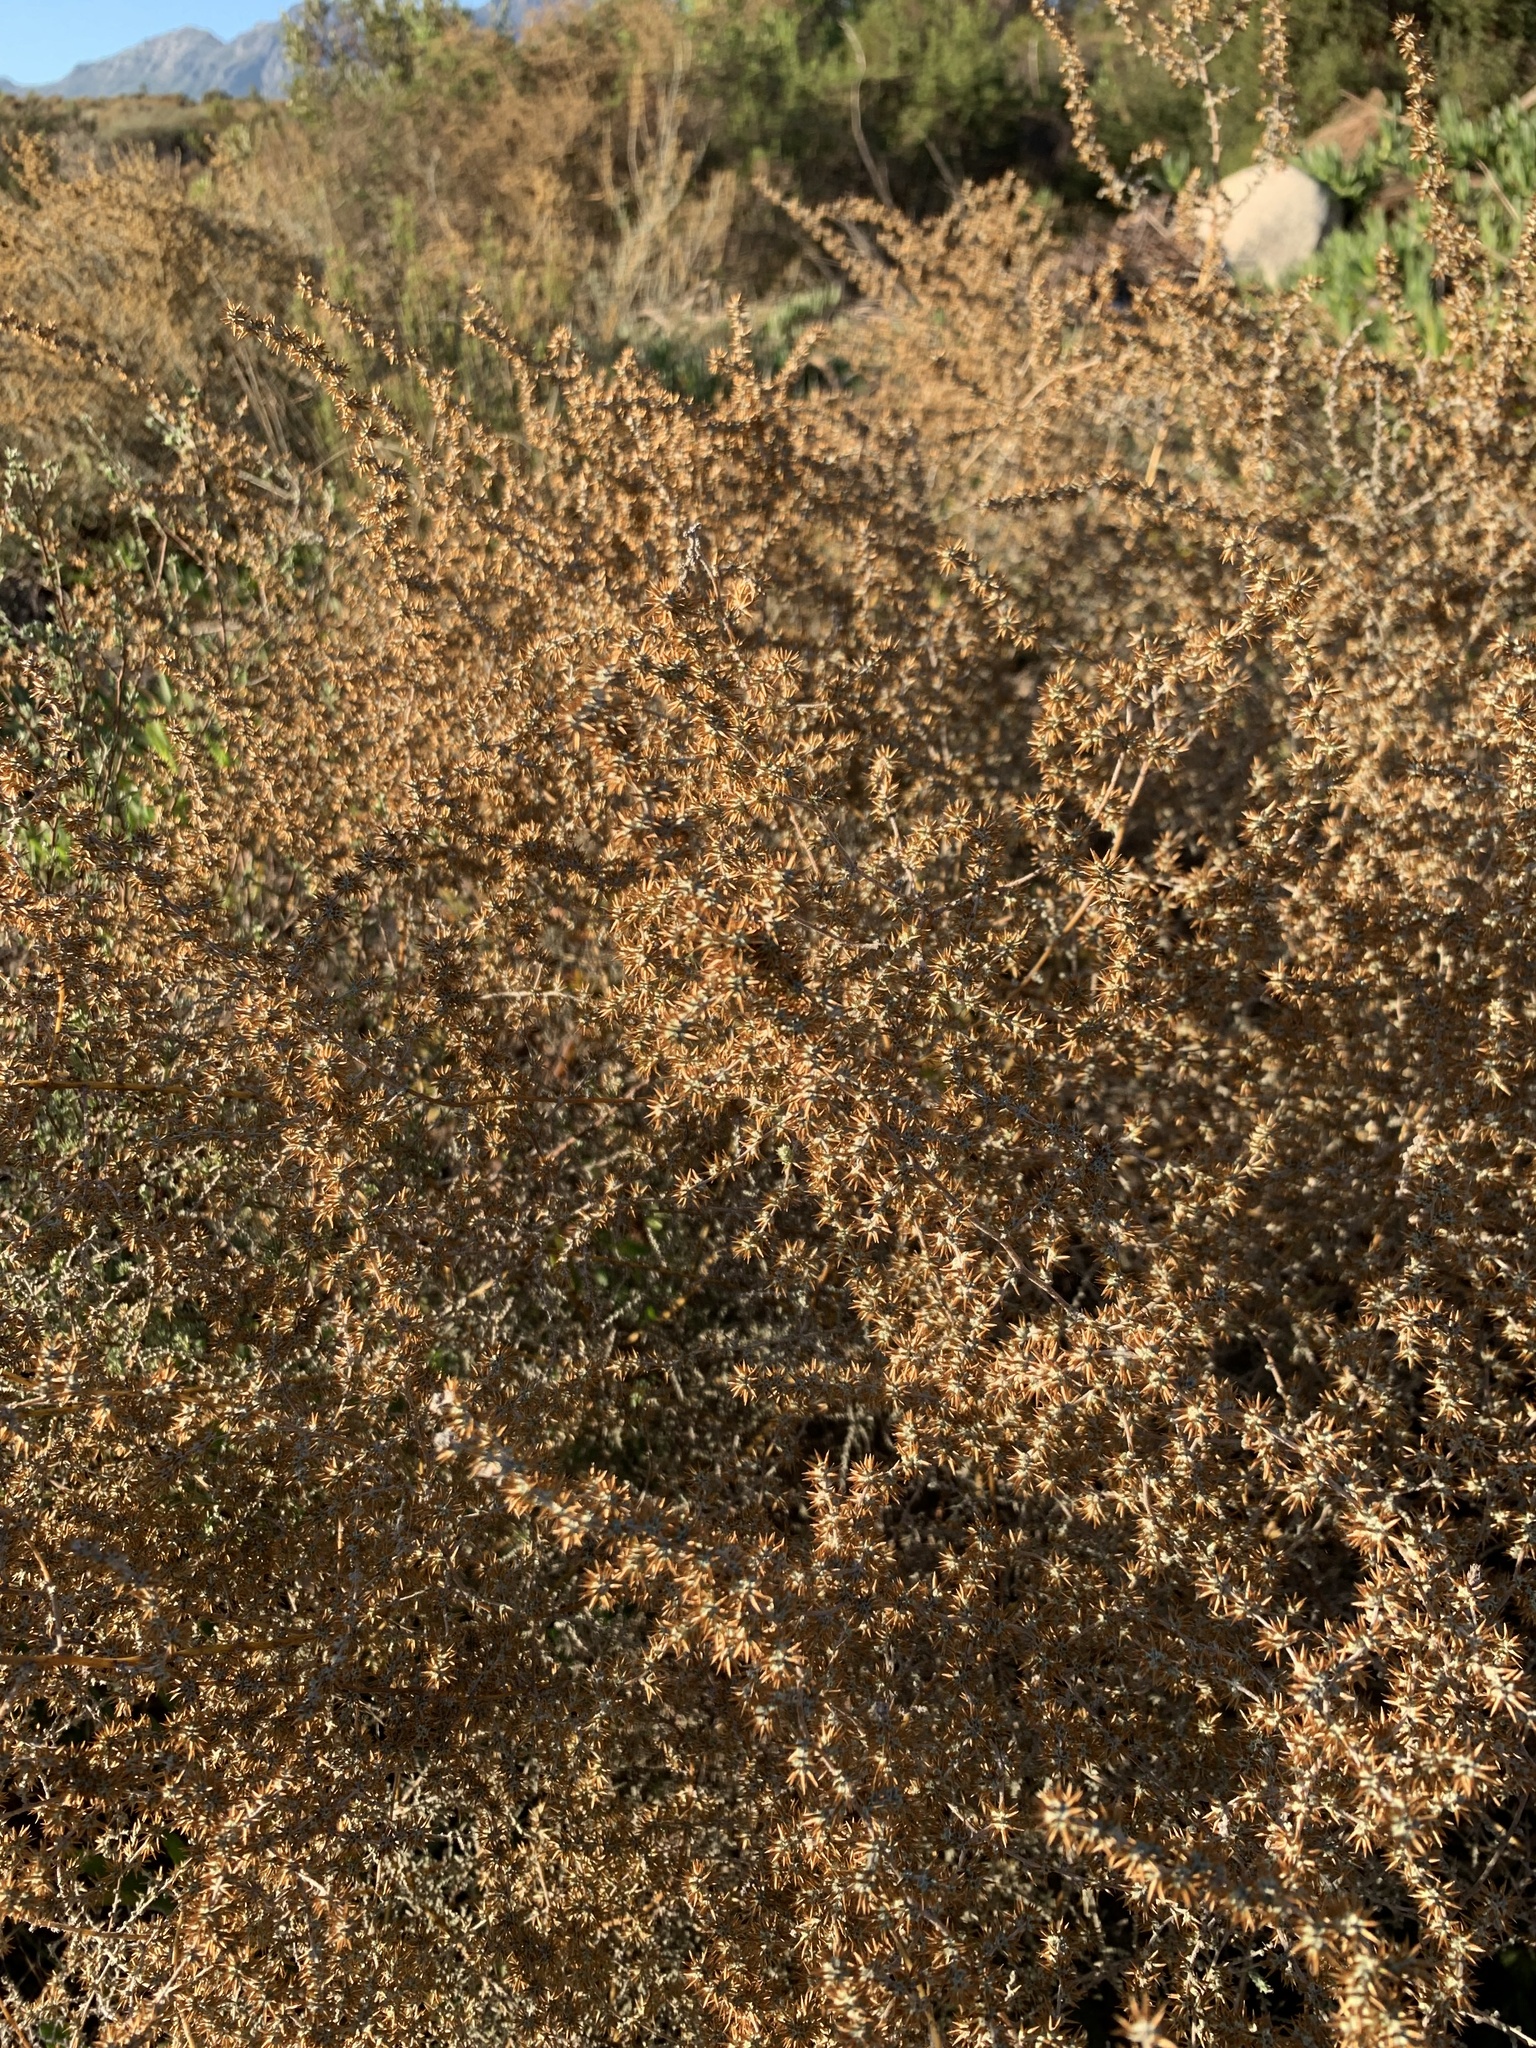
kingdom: Plantae
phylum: Tracheophyta
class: Magnoliopsida
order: Asterales
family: Asteraceae
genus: Seriphium
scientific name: Seriphium plumosum
